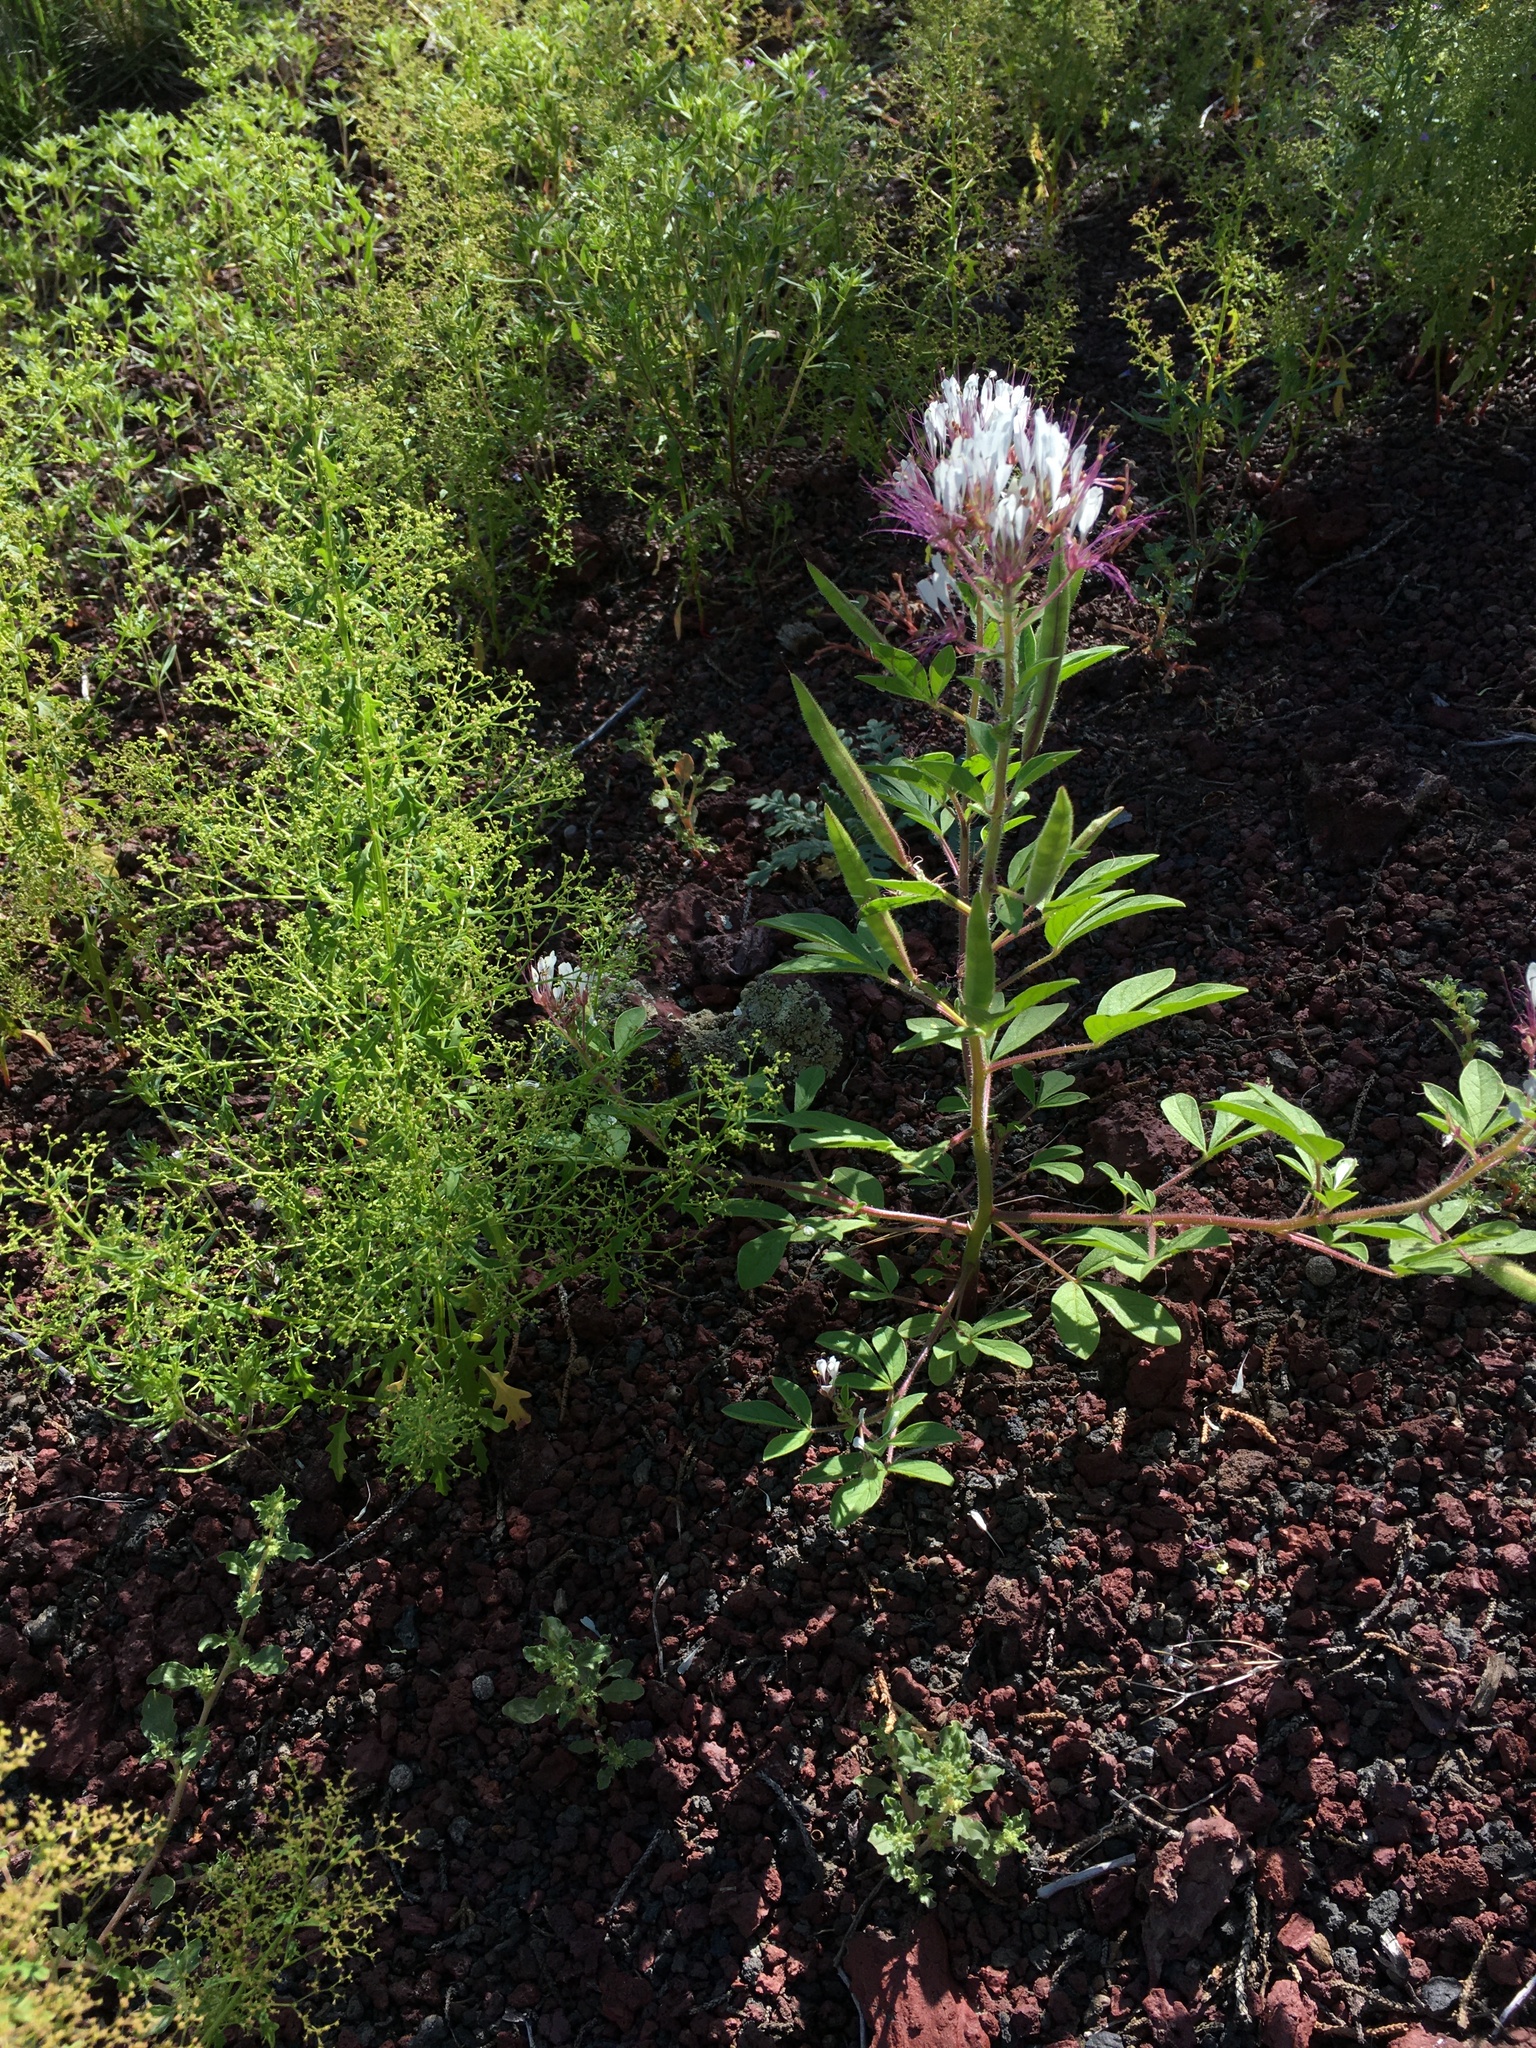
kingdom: Plantae
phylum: Tracheophyta
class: Magnoliopsida
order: Brassicales
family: Cleomaceae
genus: Polanisia
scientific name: Polanisia dodecandra
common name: Clammyweed
